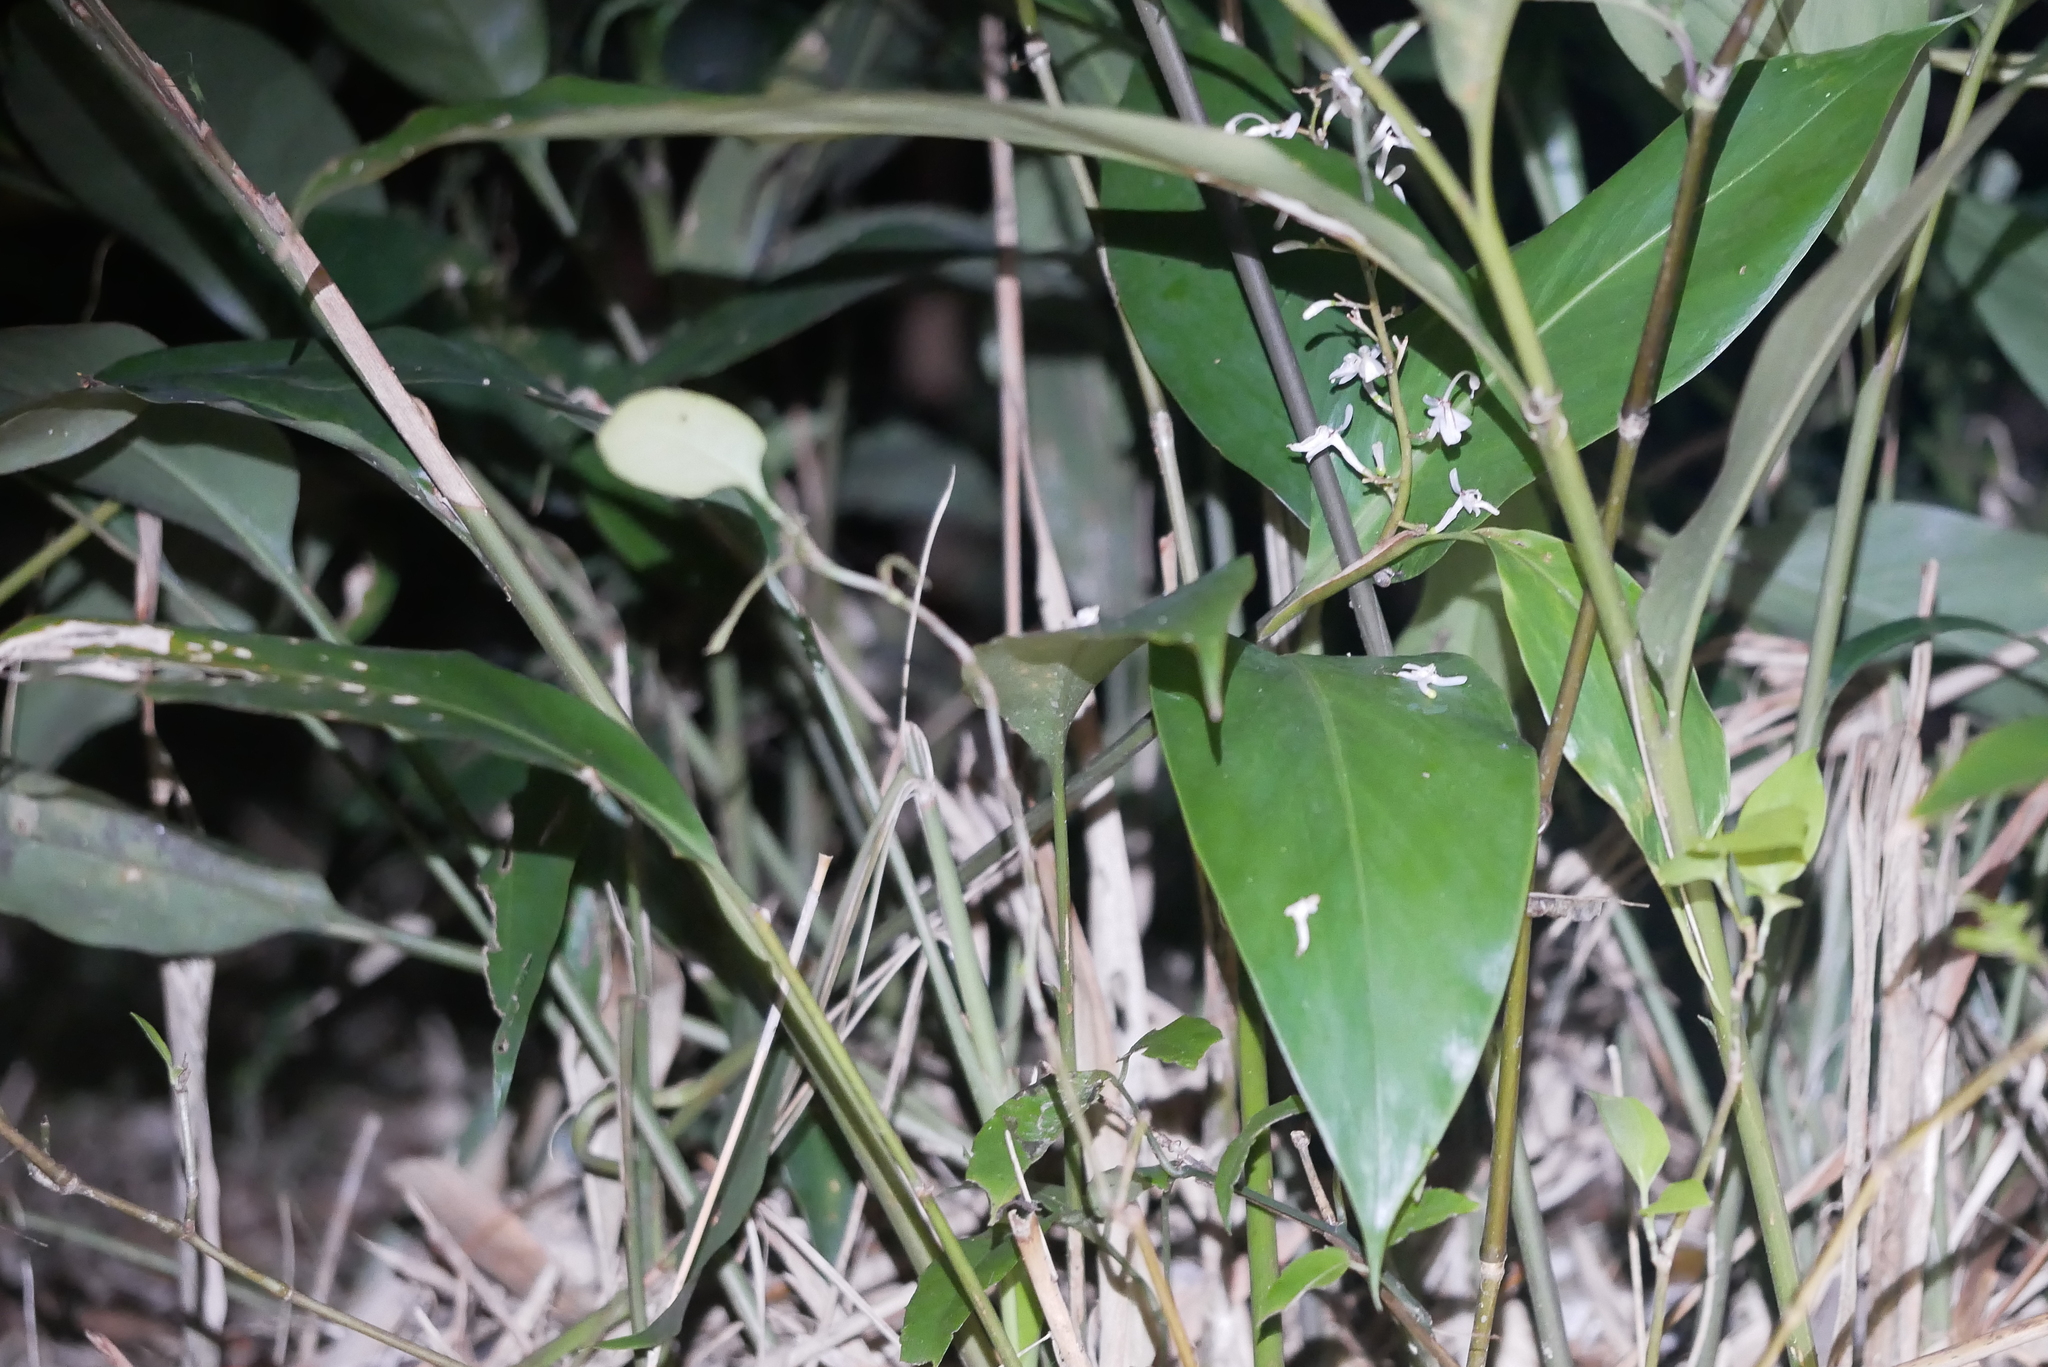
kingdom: Plantae
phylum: Tracheophyta
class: Liliopsida
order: Zingiberales
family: Zingiberaceae
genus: Alpinia
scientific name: Alpinia intermedia
